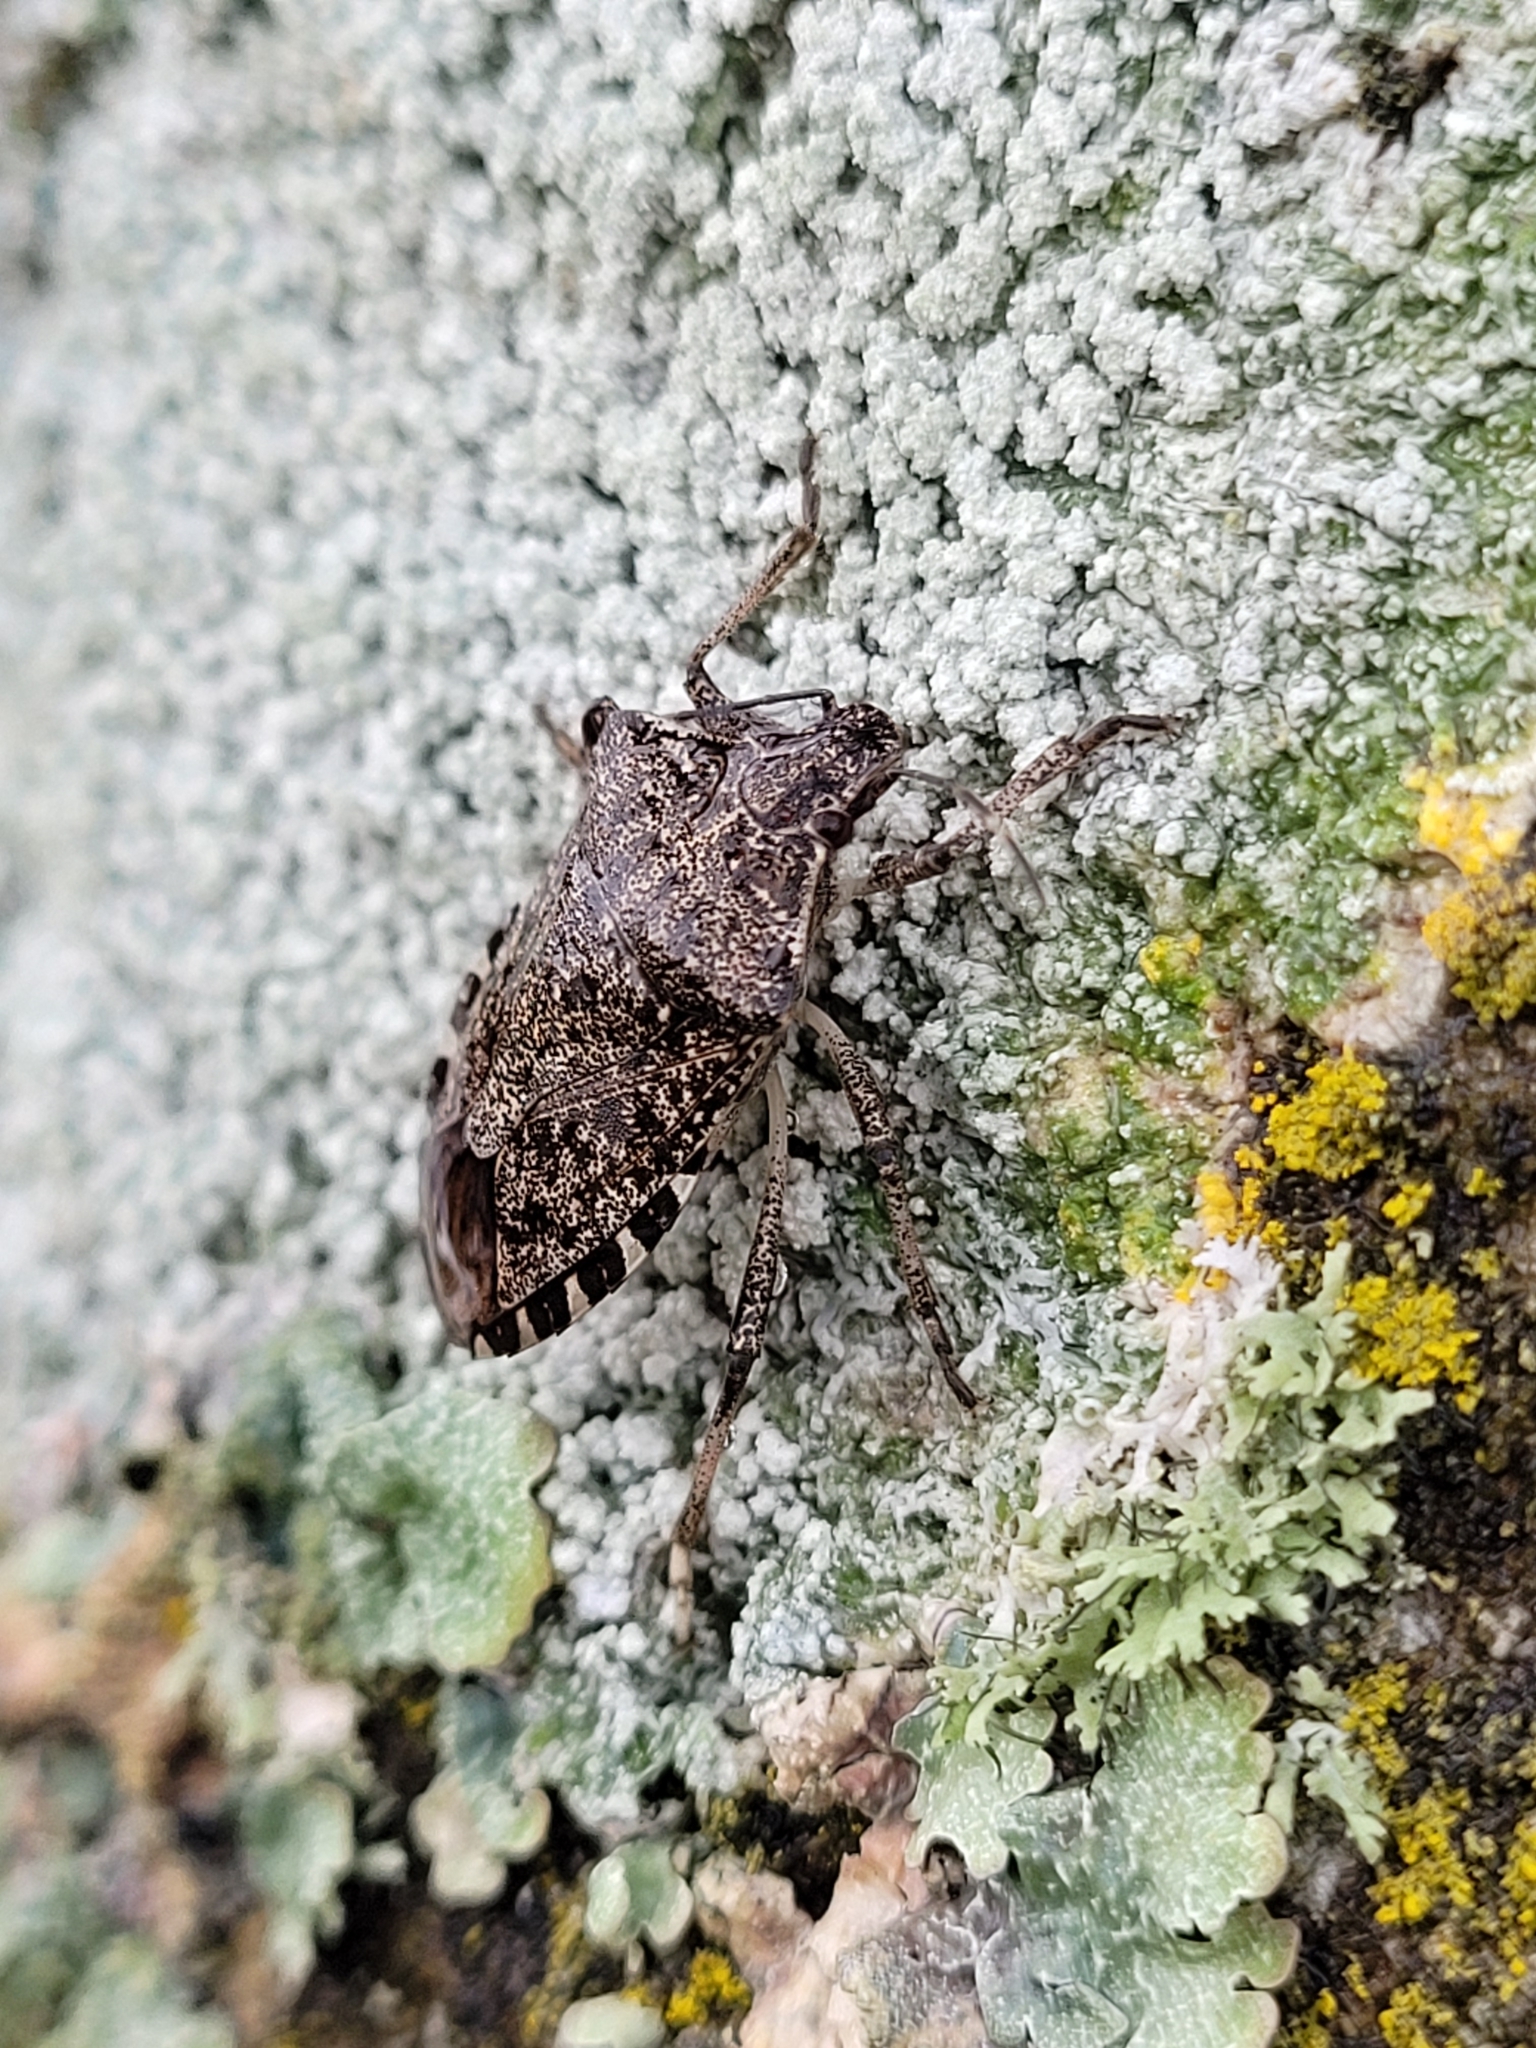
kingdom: Animalia
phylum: Arthropoda
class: Insecta
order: Hemiptera
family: Pentatomidae
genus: Halyomorpha
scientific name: Halyomorpha halys
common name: Brown marmorated stink bug
